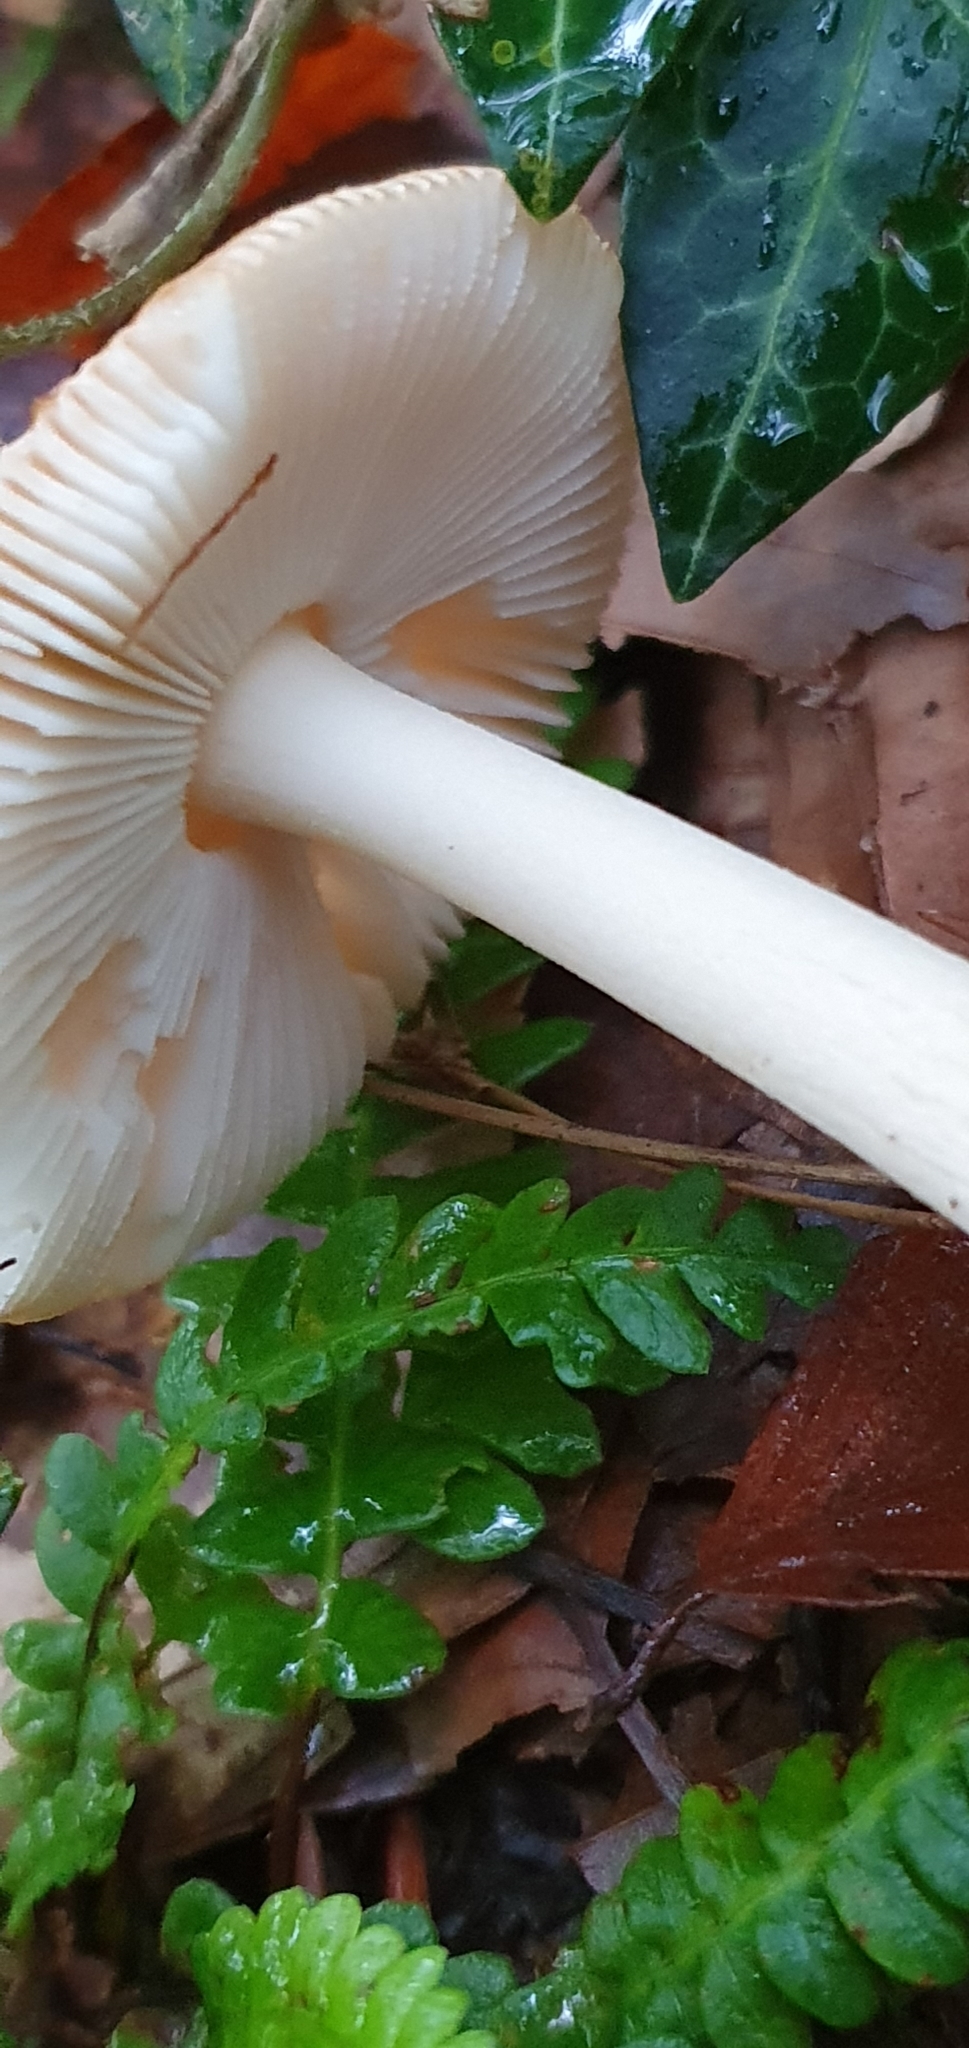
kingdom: Fungi
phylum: Basidiomycota
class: Agaricomycetes
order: Agaricales
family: Amanitaceae
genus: Amanita
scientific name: Amanita fulva
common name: Tawny grisette
